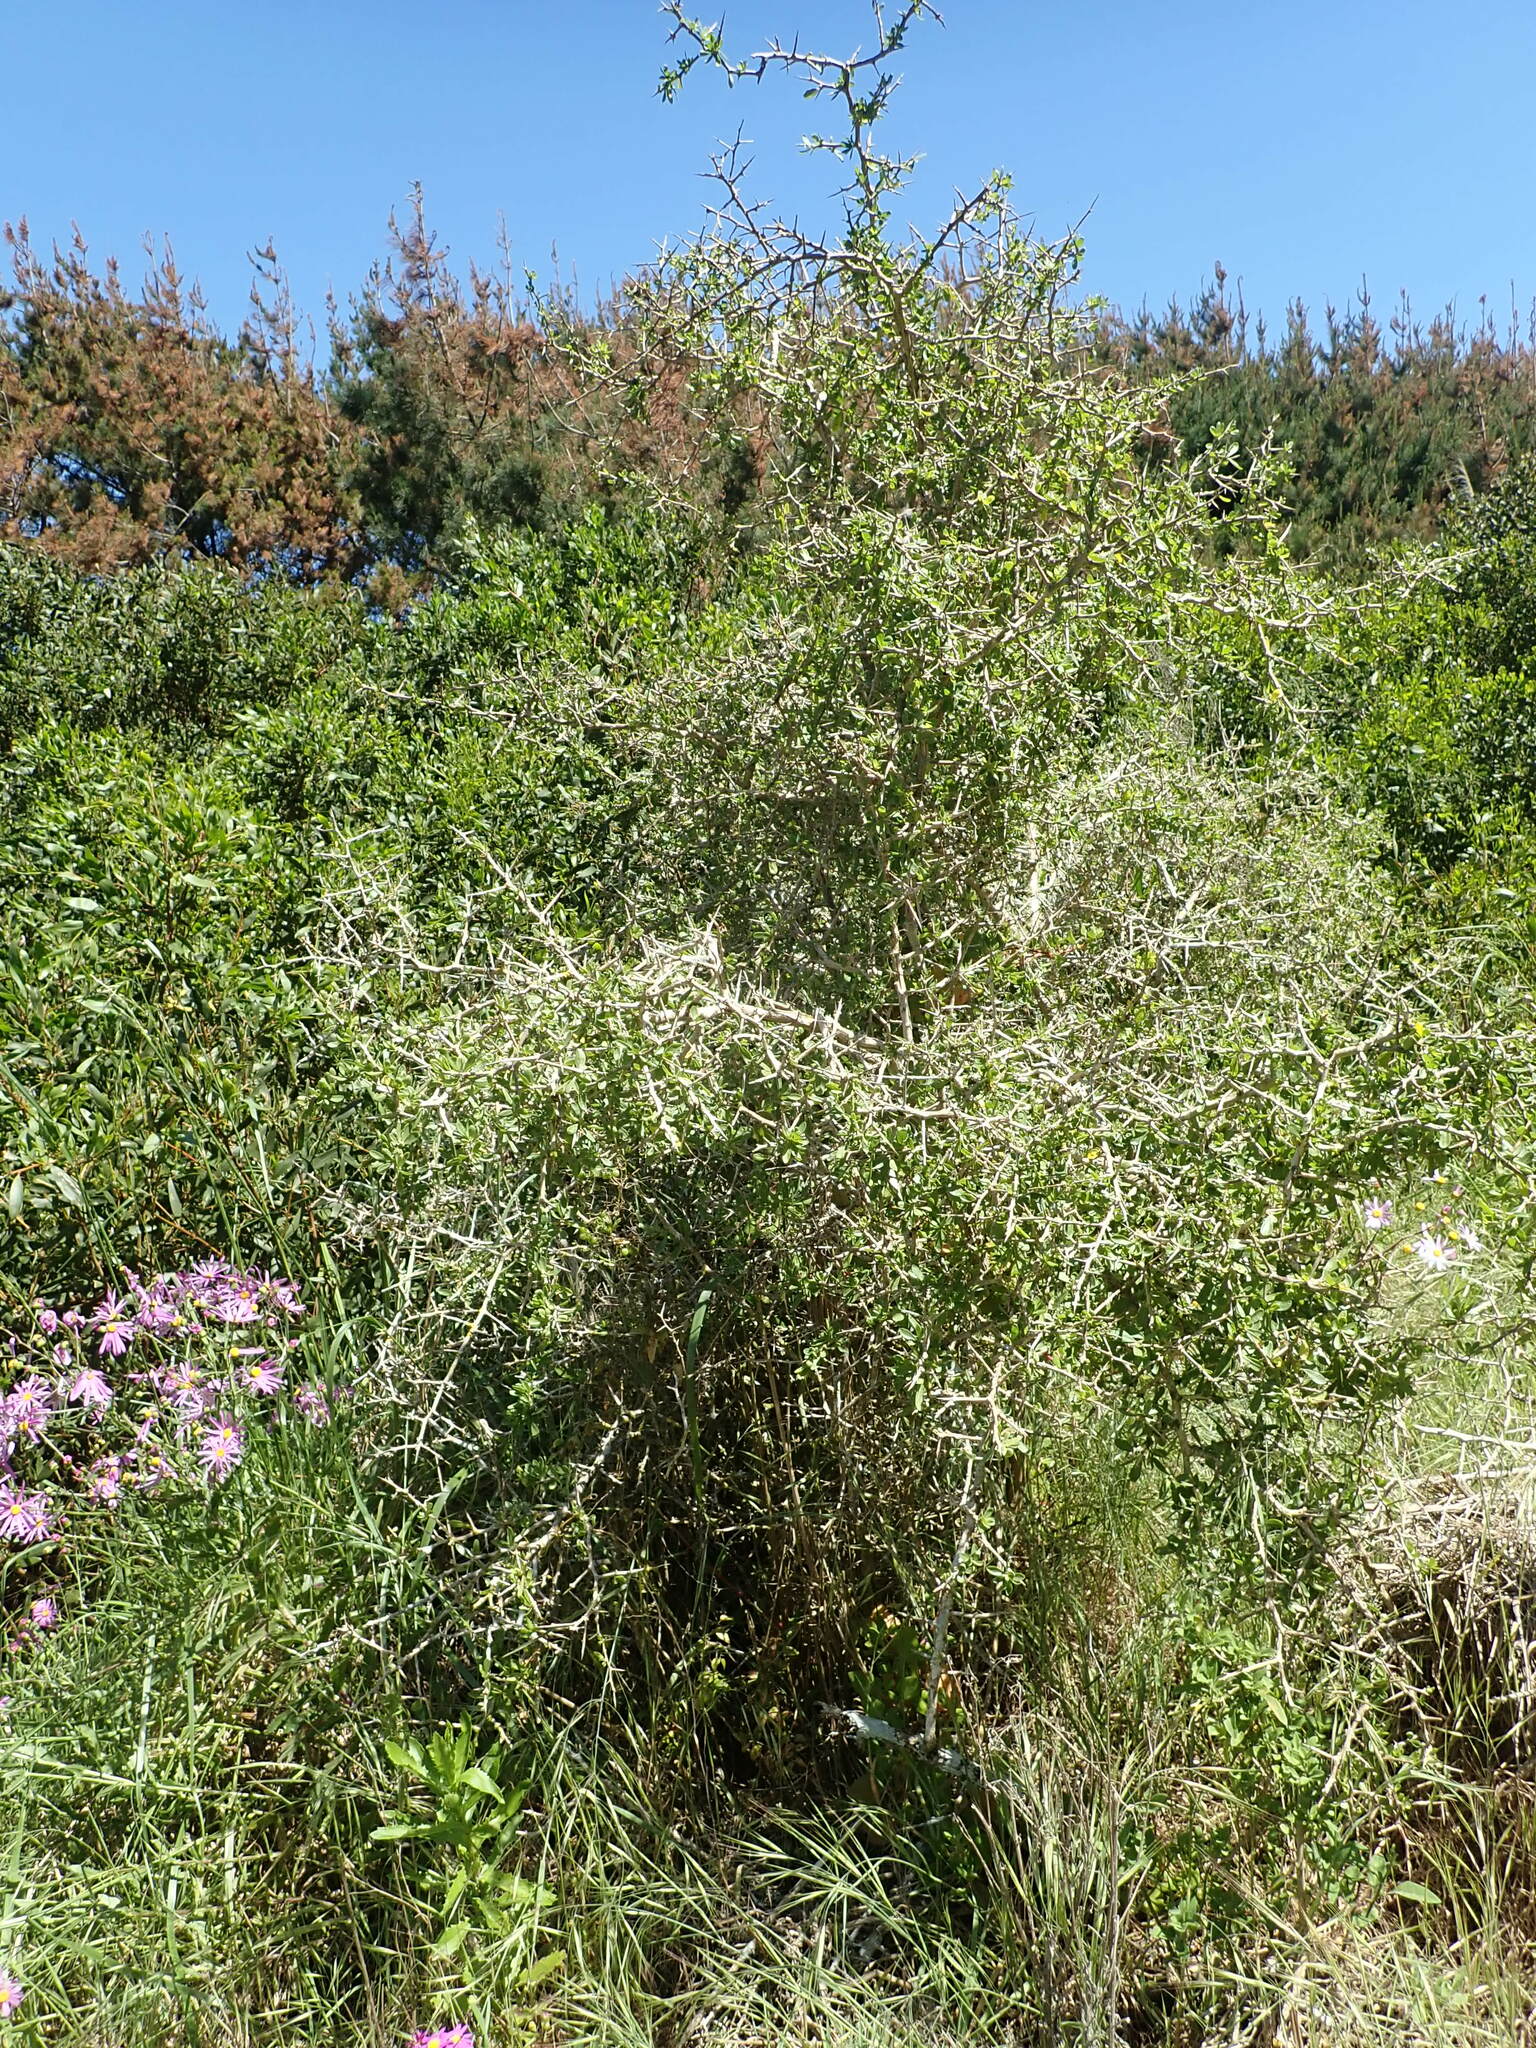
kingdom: Plantae
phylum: Tracheophyta
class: Magnoliopsida
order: Solanales
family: Solanaceae
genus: Lycium
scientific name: Lycium ferocissimum
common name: African boxthorn
